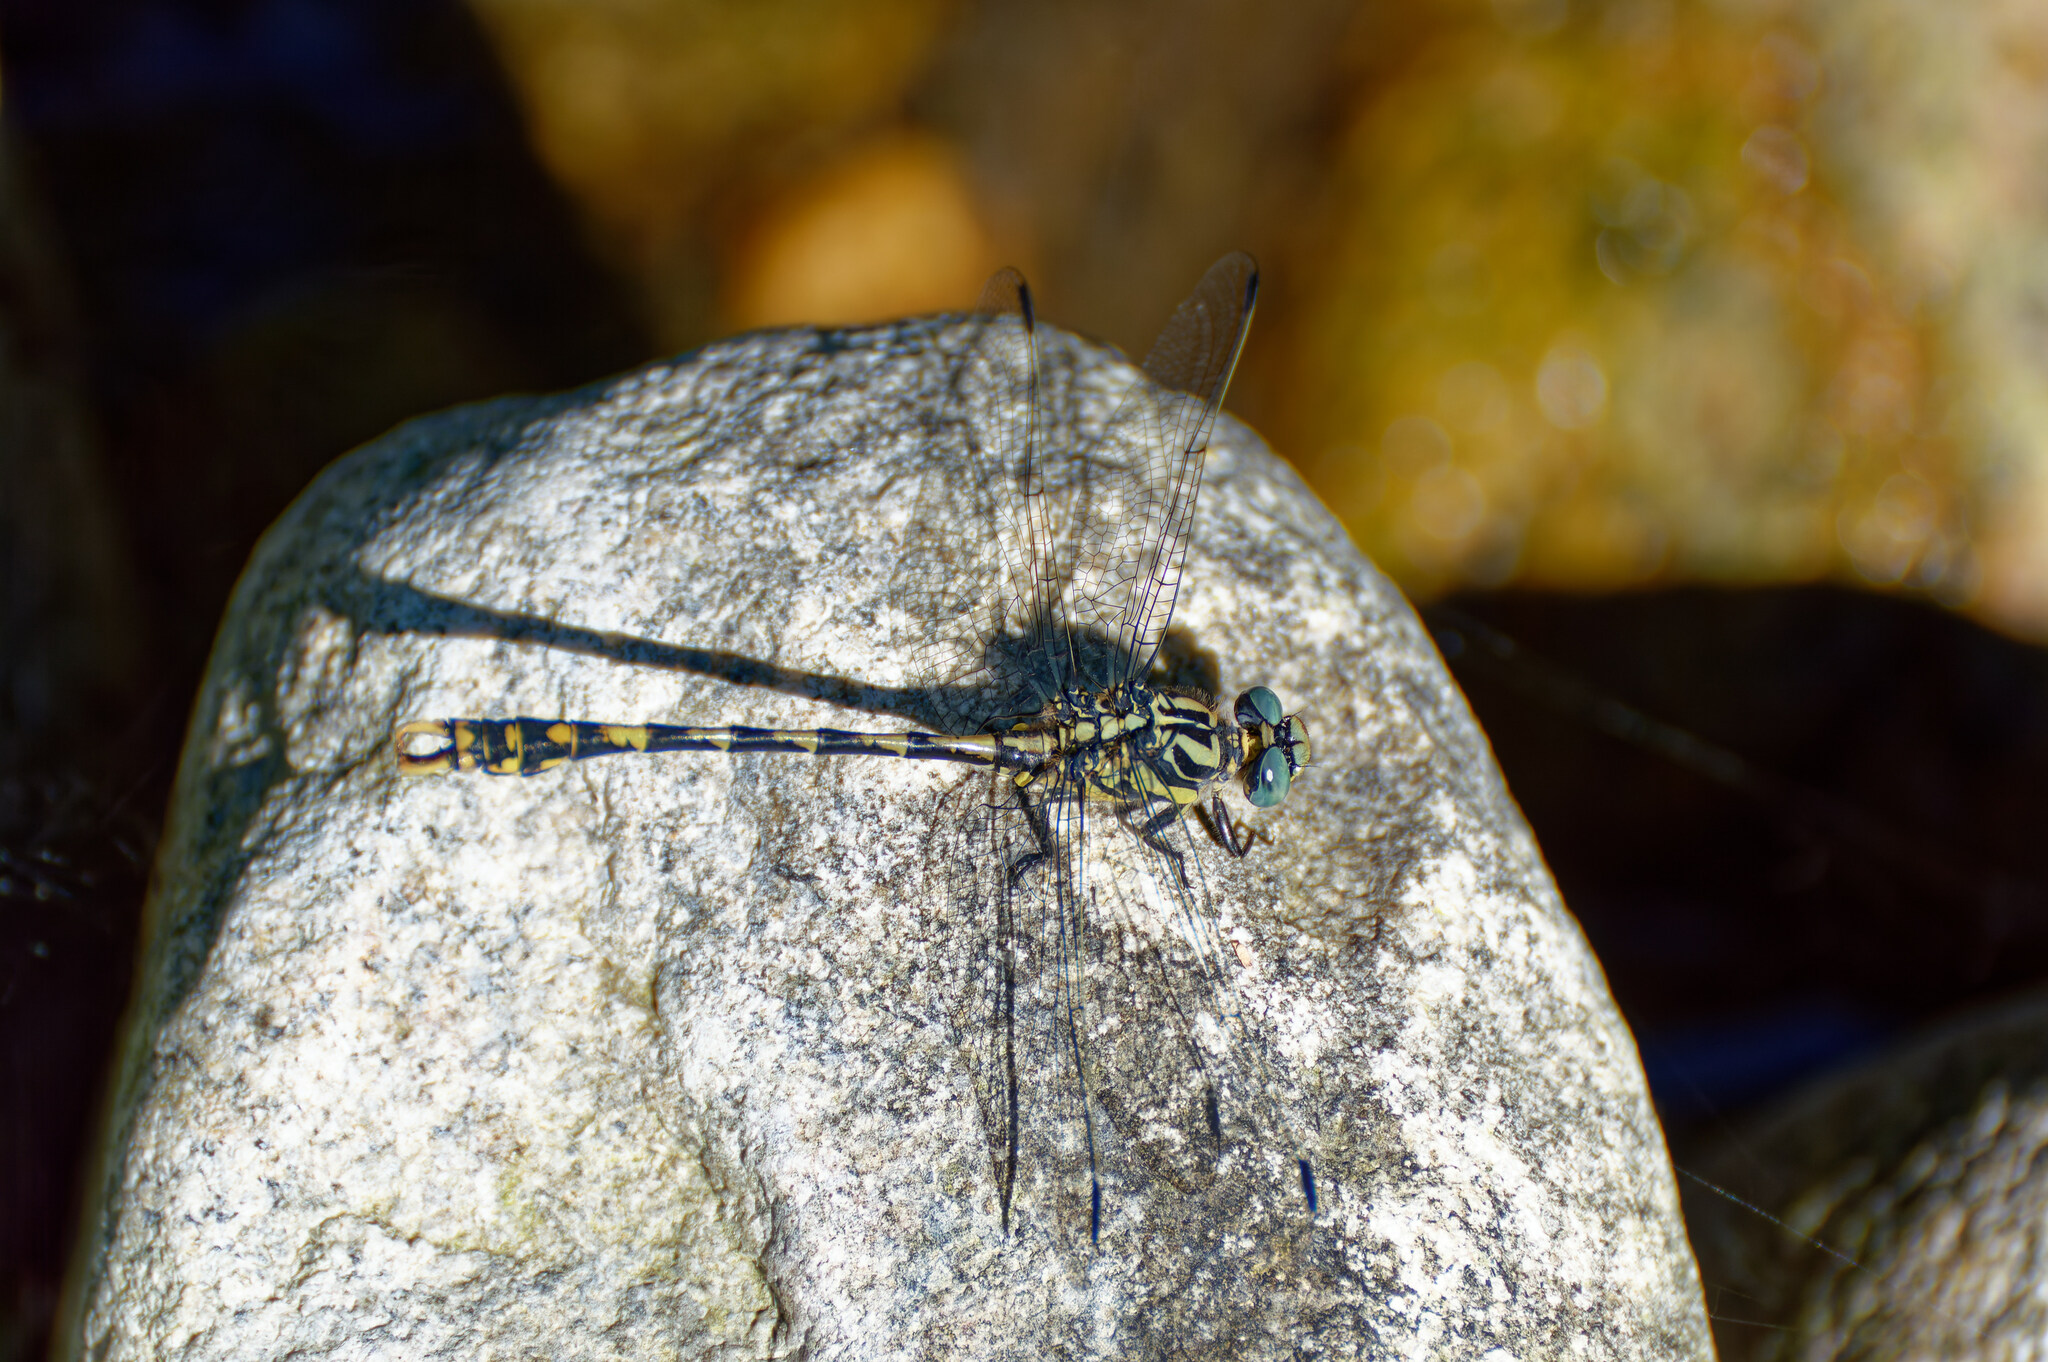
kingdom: Animalia
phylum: Arthropoda
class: Insecta
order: Odonata
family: Gomphidae
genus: Onychogomphus
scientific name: Onychogomphus uncatus
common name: Large pincertail
